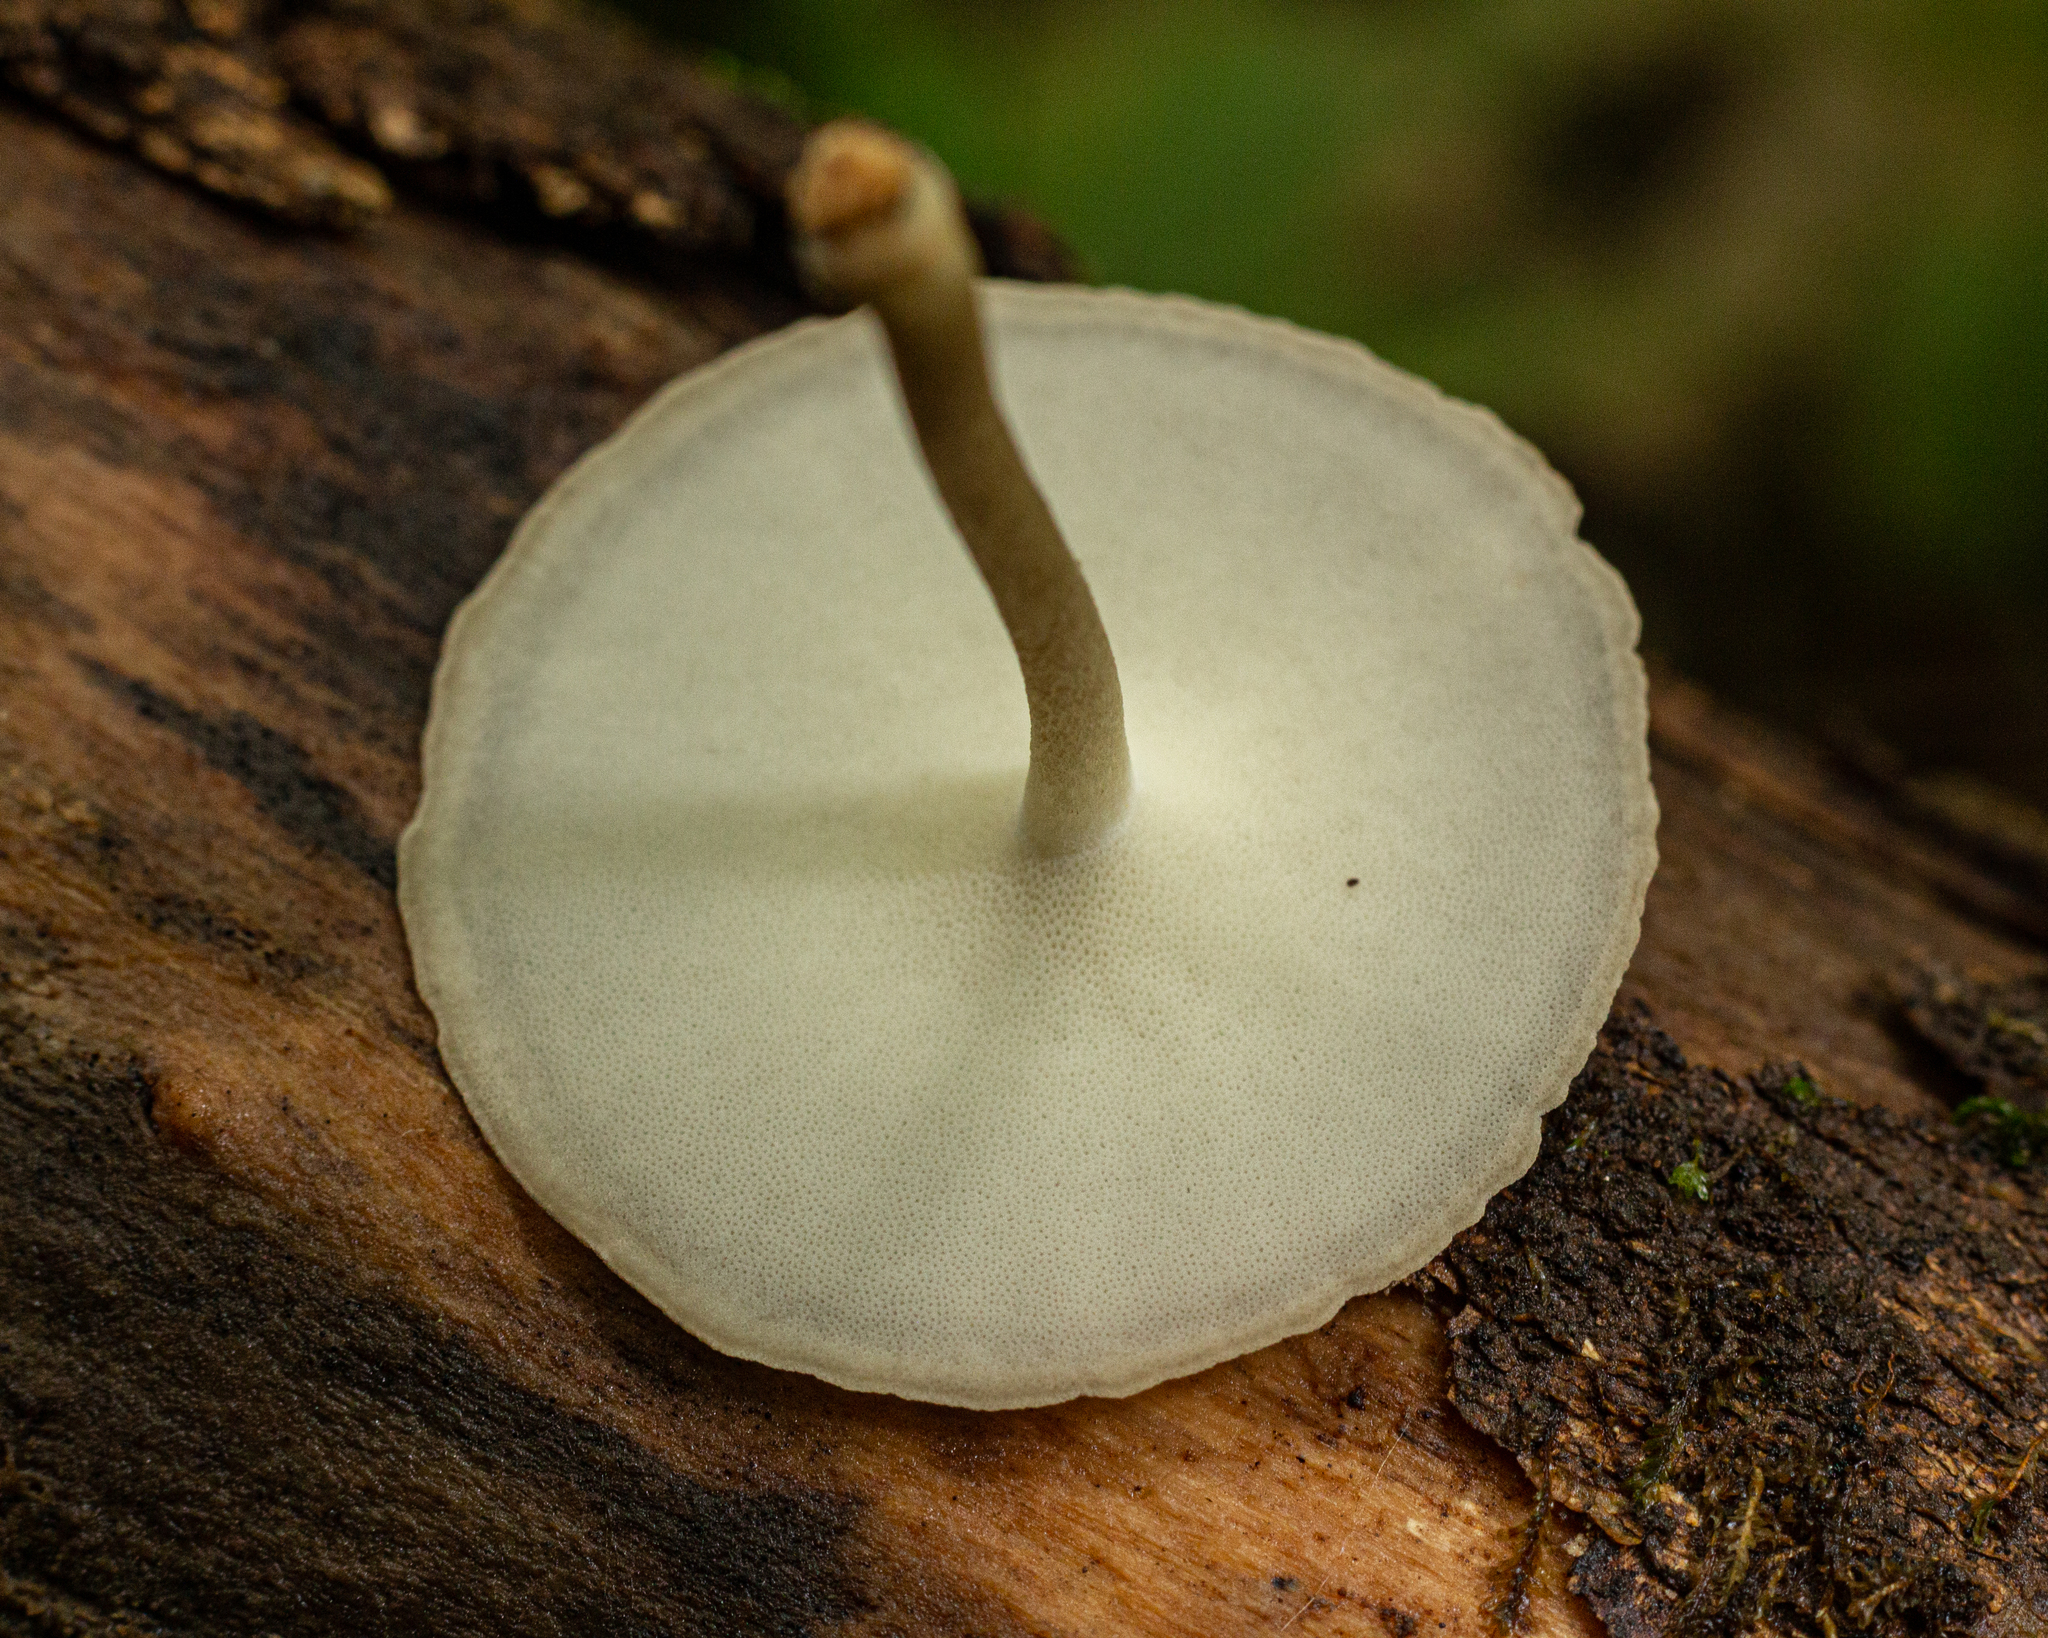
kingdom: Fungi
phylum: Basidiomycota
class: Agaricomycetes
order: Polyporales
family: Polyporaceae
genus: Lentinus
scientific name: Lentinus flexipes
